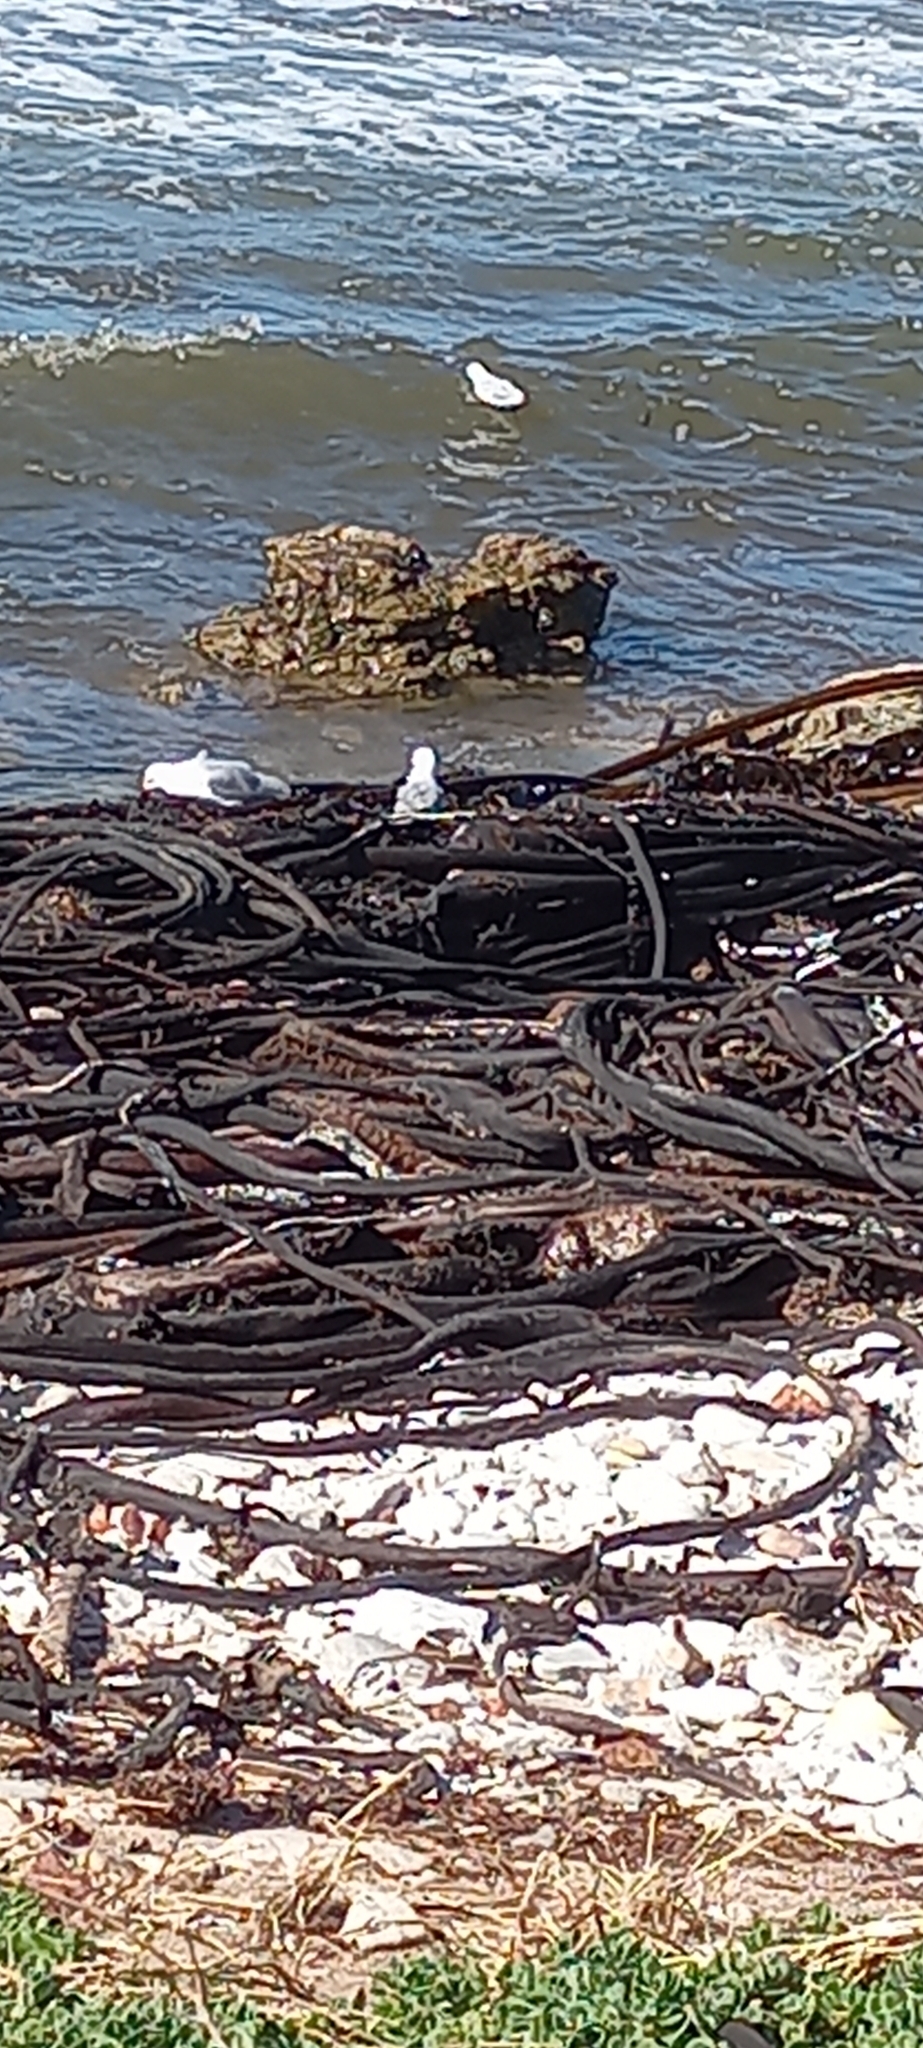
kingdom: Animalia
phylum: Chordata
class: Aves
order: Charadriiformes
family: Laridae
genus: Chroicocephalus
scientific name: Chroicocephalus hartlaubii
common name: Hartlaub's gull
